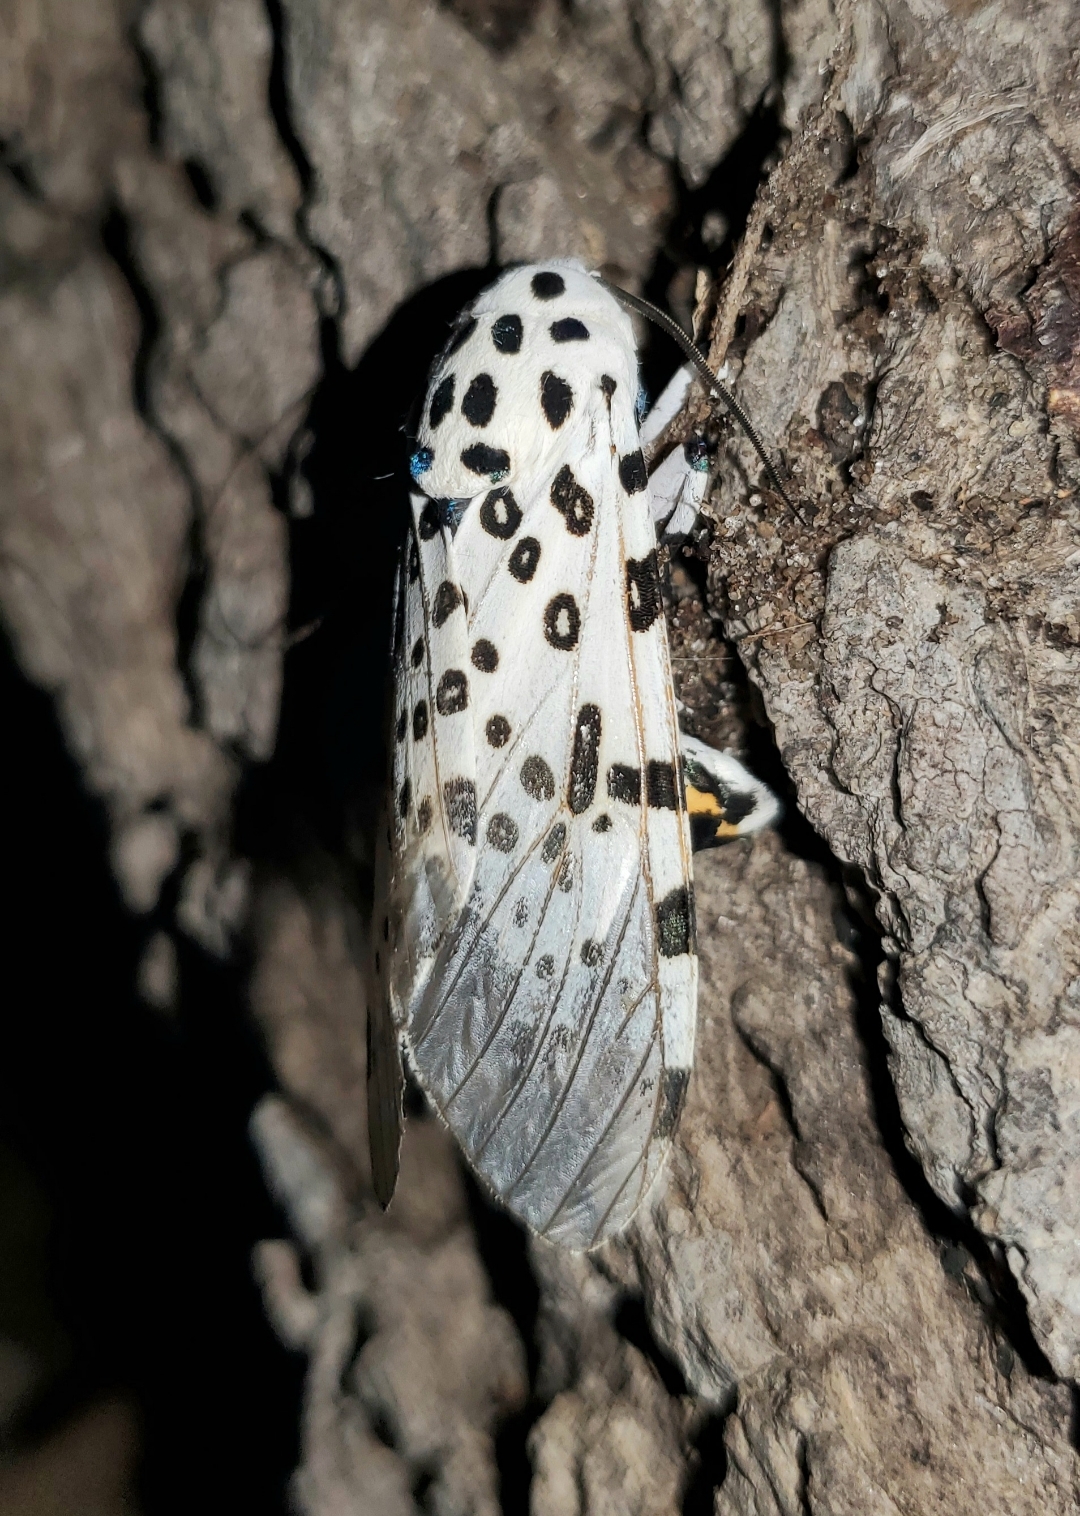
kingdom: Animalia
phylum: Arthropoda
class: Insecta
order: Lepidoptera
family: Erebidae
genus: Hypercompe
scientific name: Hypercompe scribonia
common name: Giant leopard moth
